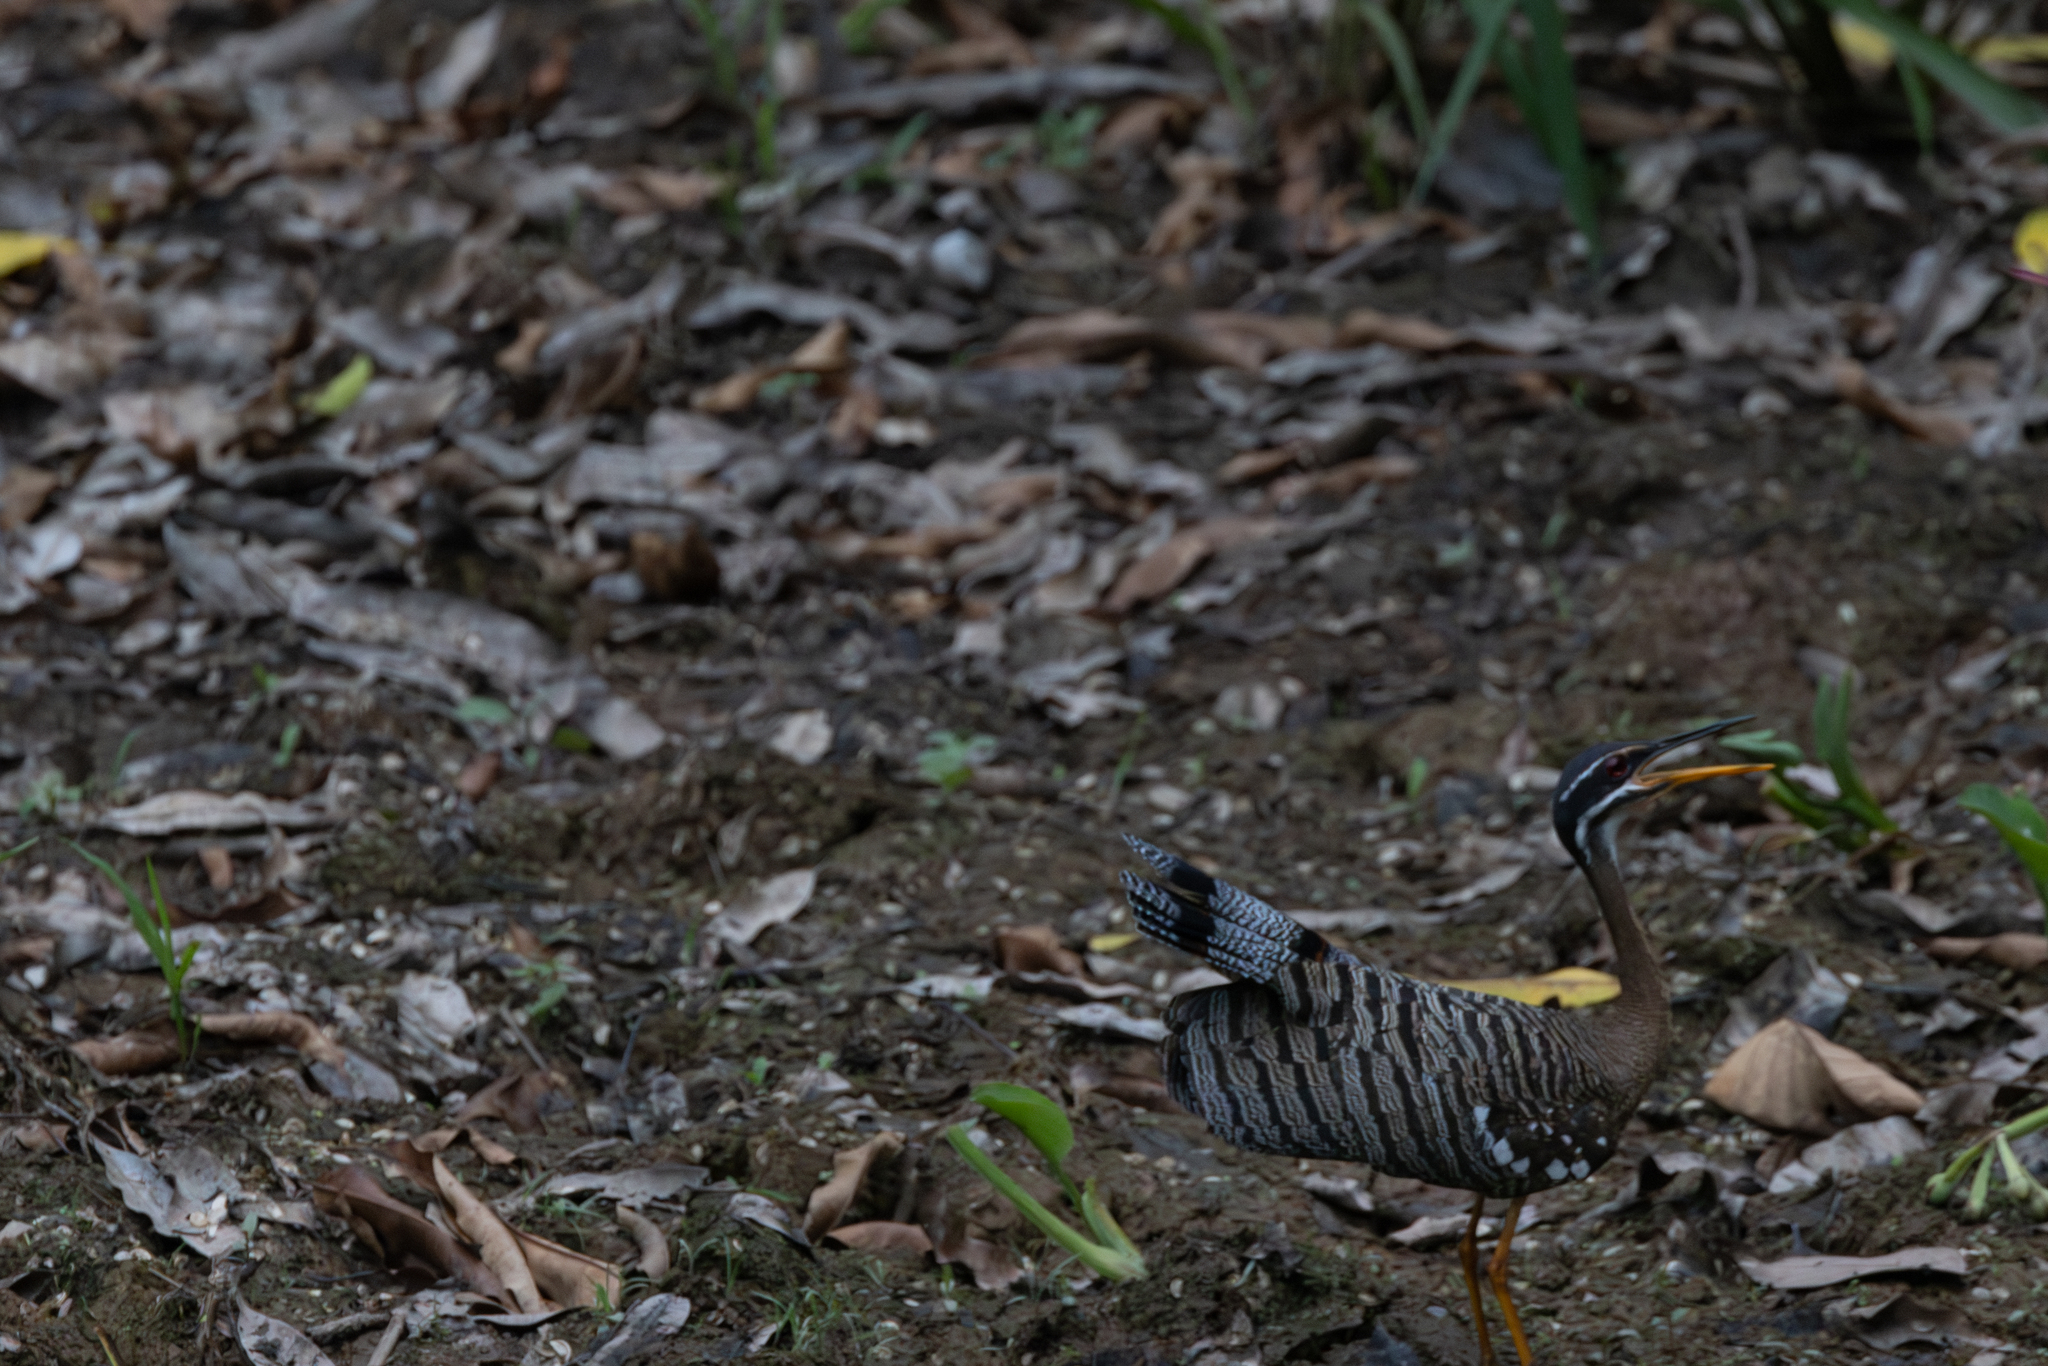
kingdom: Animalia
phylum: Chordata
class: Aves
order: Eurypygiformes
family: Eurypygidae
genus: Eurypyga
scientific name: Eurypyga helias
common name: Sunbittern
